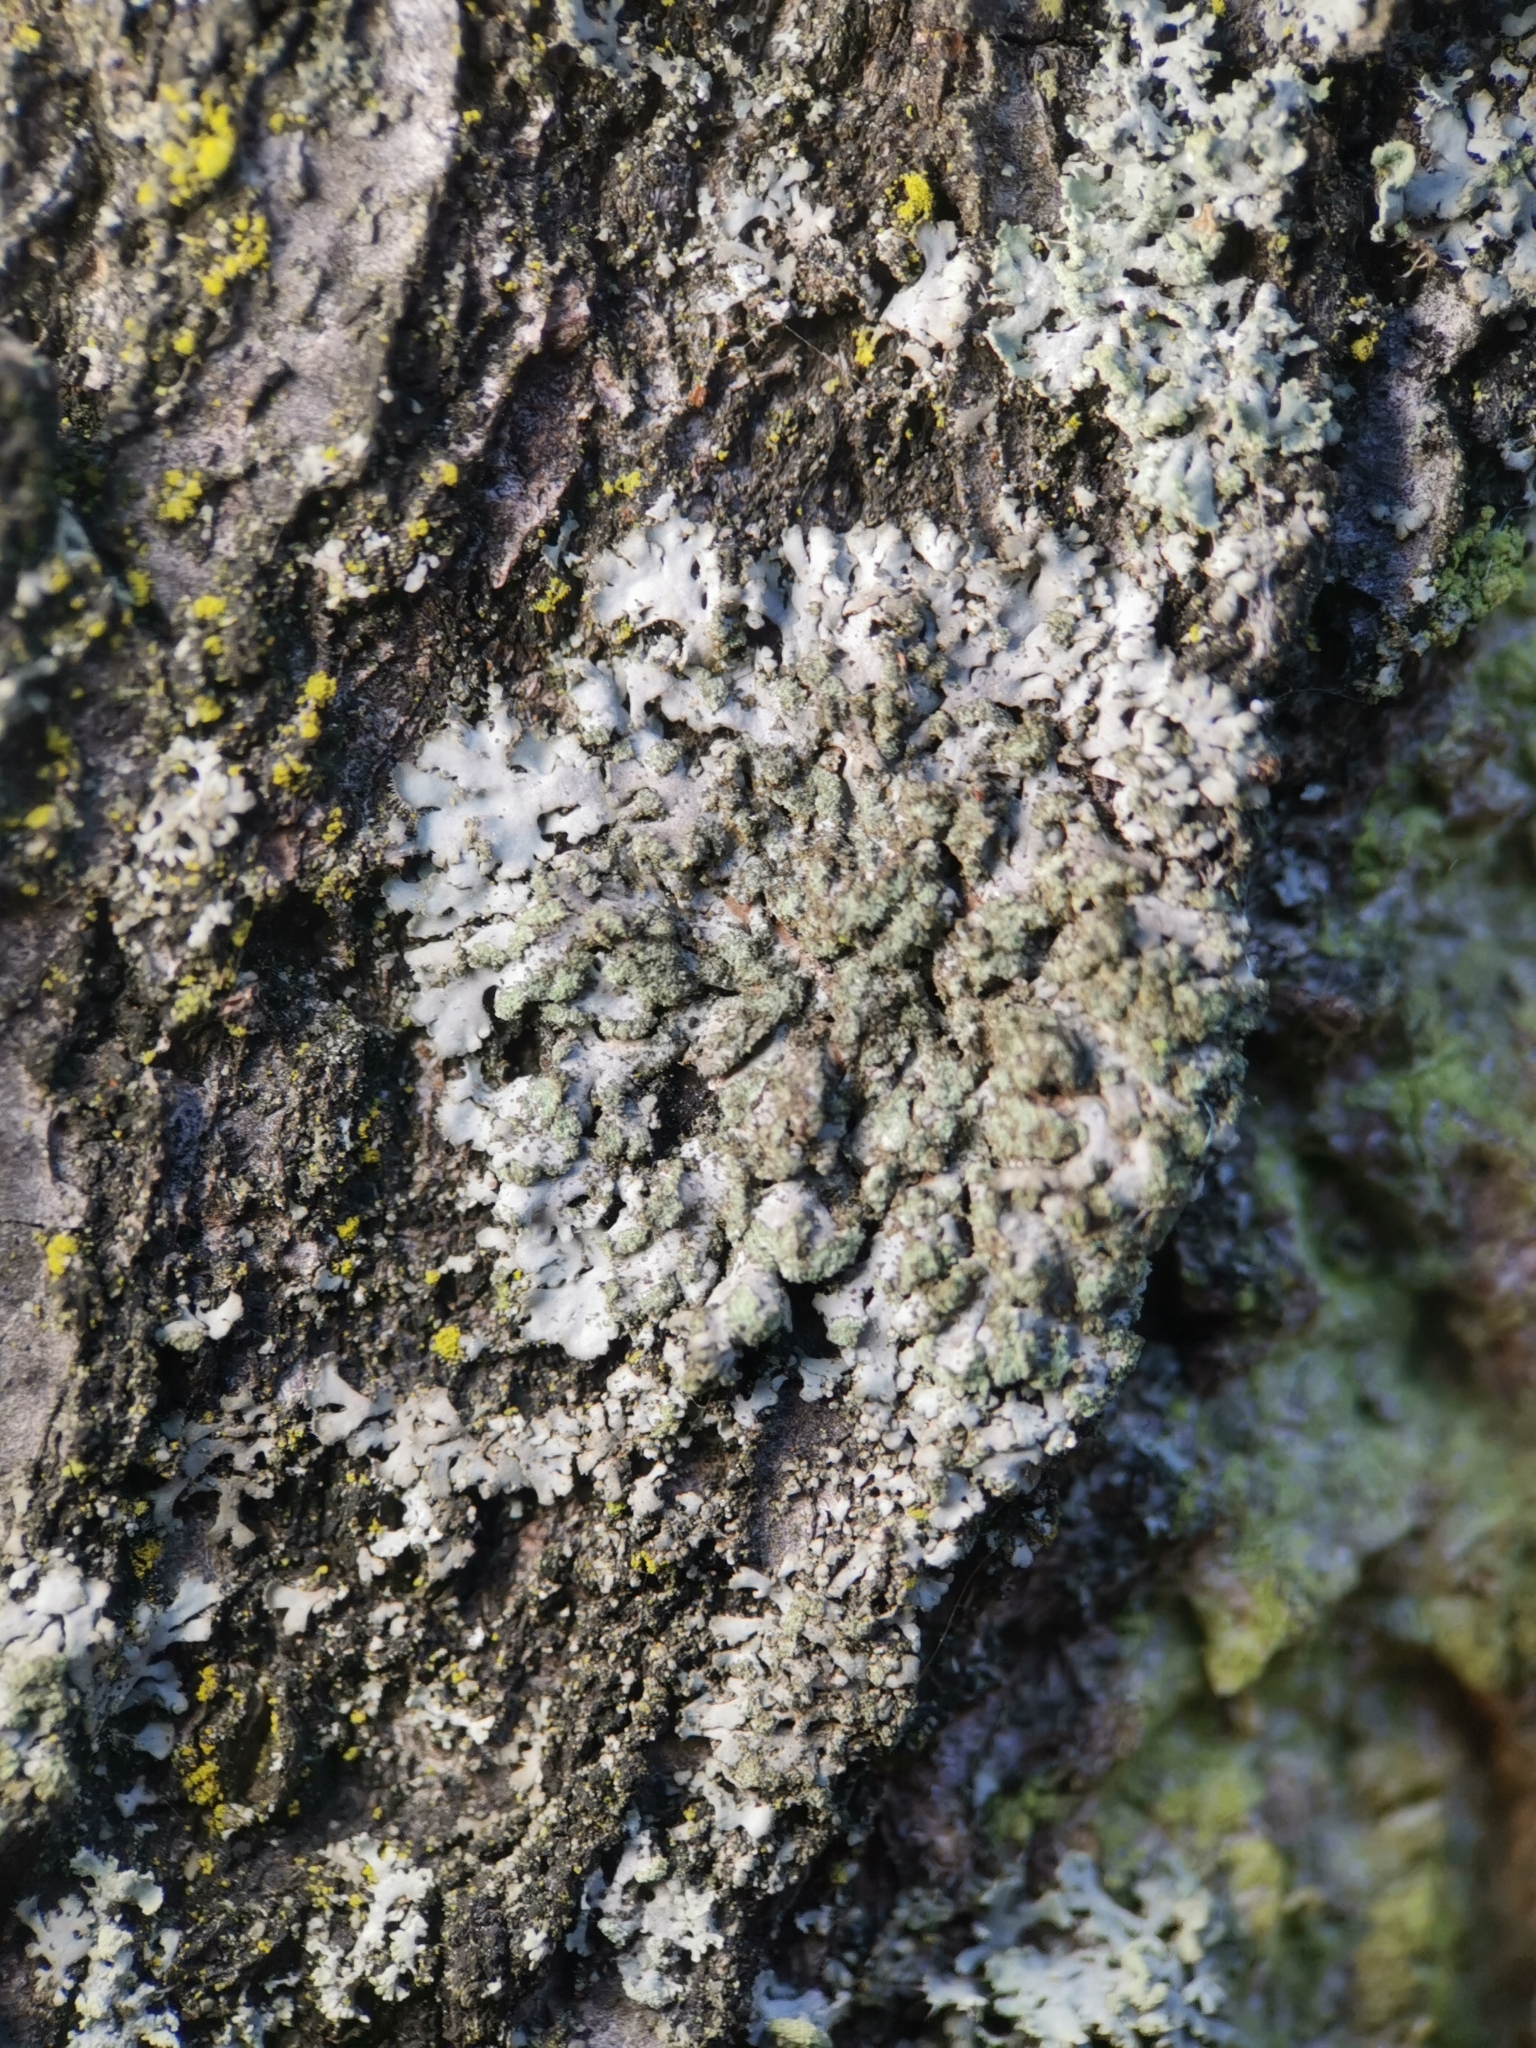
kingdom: Fungi
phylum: Ascomycota
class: Lecanoromycetes
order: Caliciales
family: Physciaceae
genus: Phaeophyscia
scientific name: Phaeophyscia orbicularis
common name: Mealy shadow lichen
